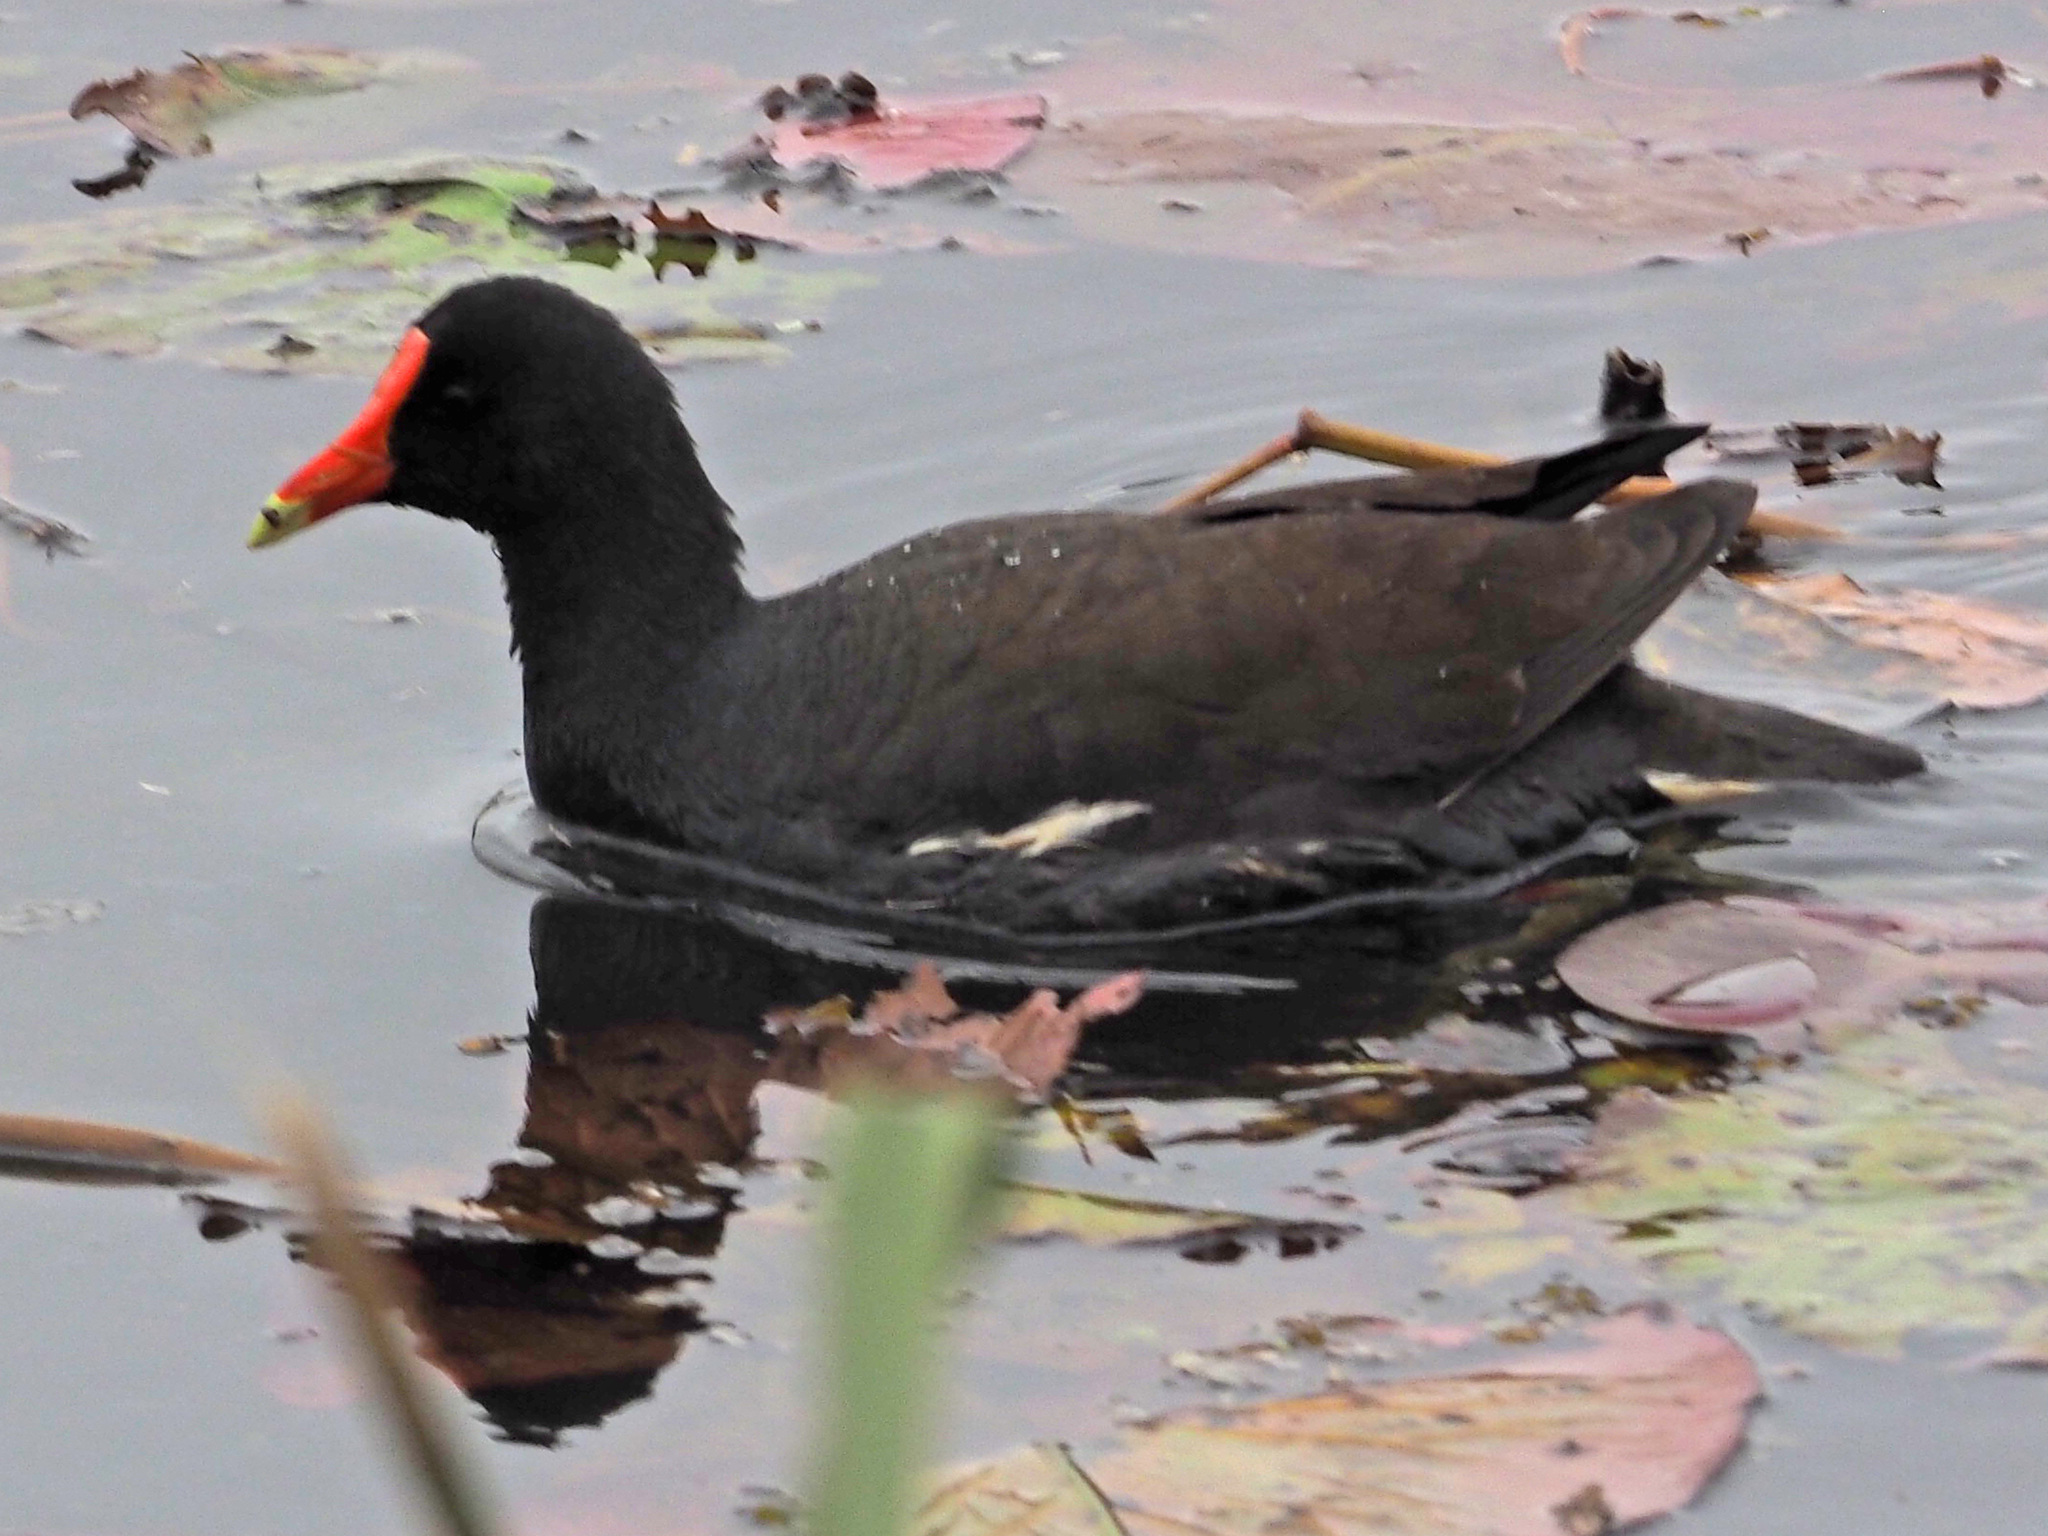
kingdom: Animalia
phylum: Chordata
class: Aves
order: Gruiformes
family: Rallidae
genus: Gallinula
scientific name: Gallinula chloropus
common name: Common moorhen
